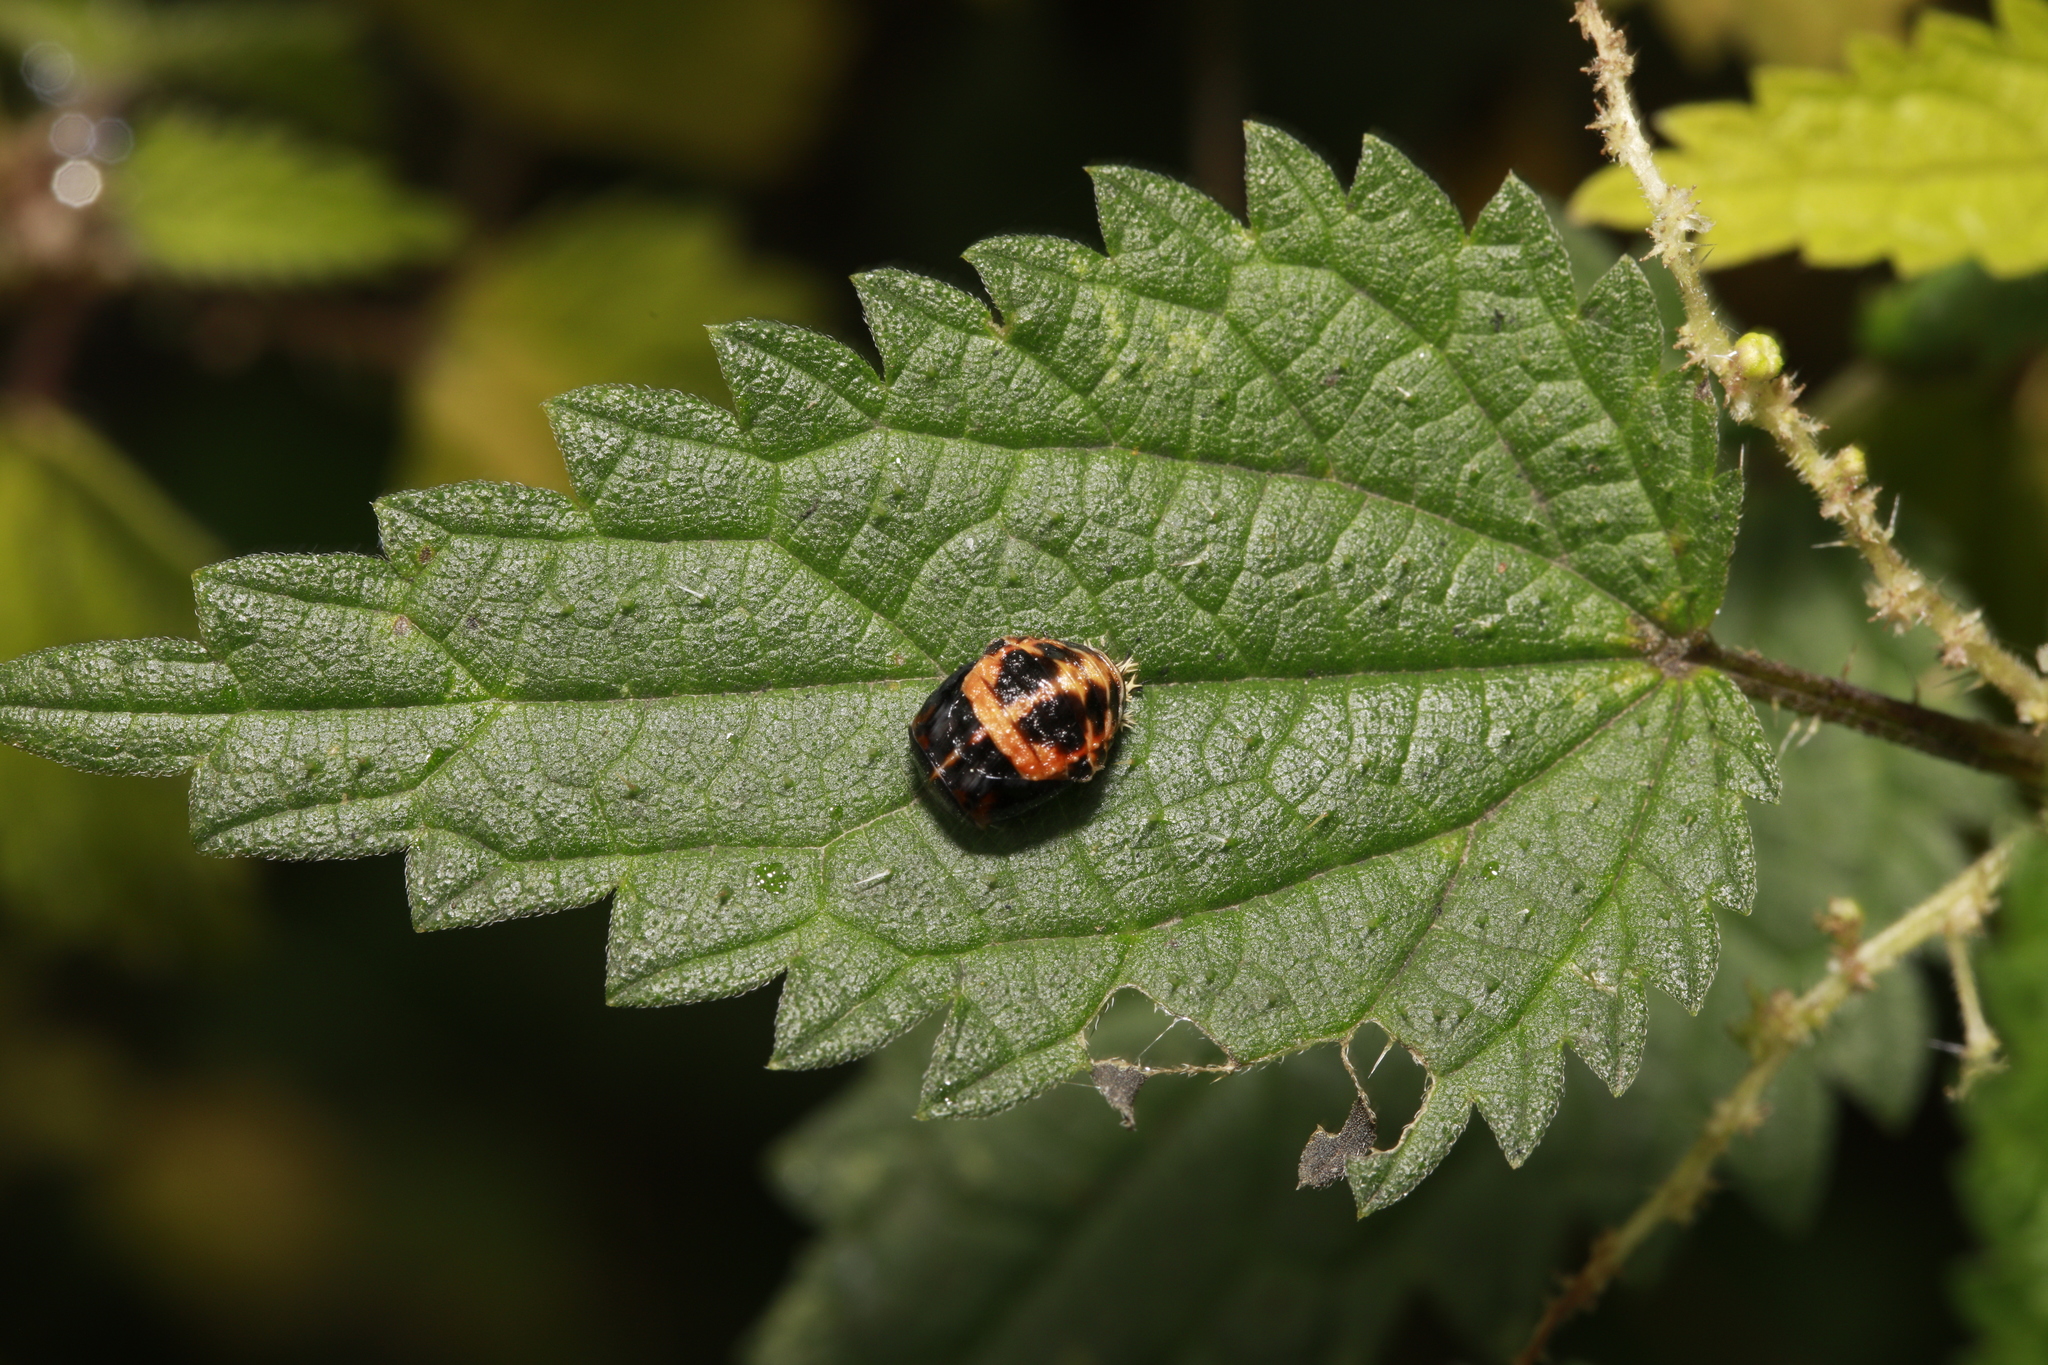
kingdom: Animalia
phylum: Arthropoda
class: Insecta
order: Coleoptera
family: Coccinellidae
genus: Harmonia
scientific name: Harmonia axyridis
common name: Harlequin ladybird
